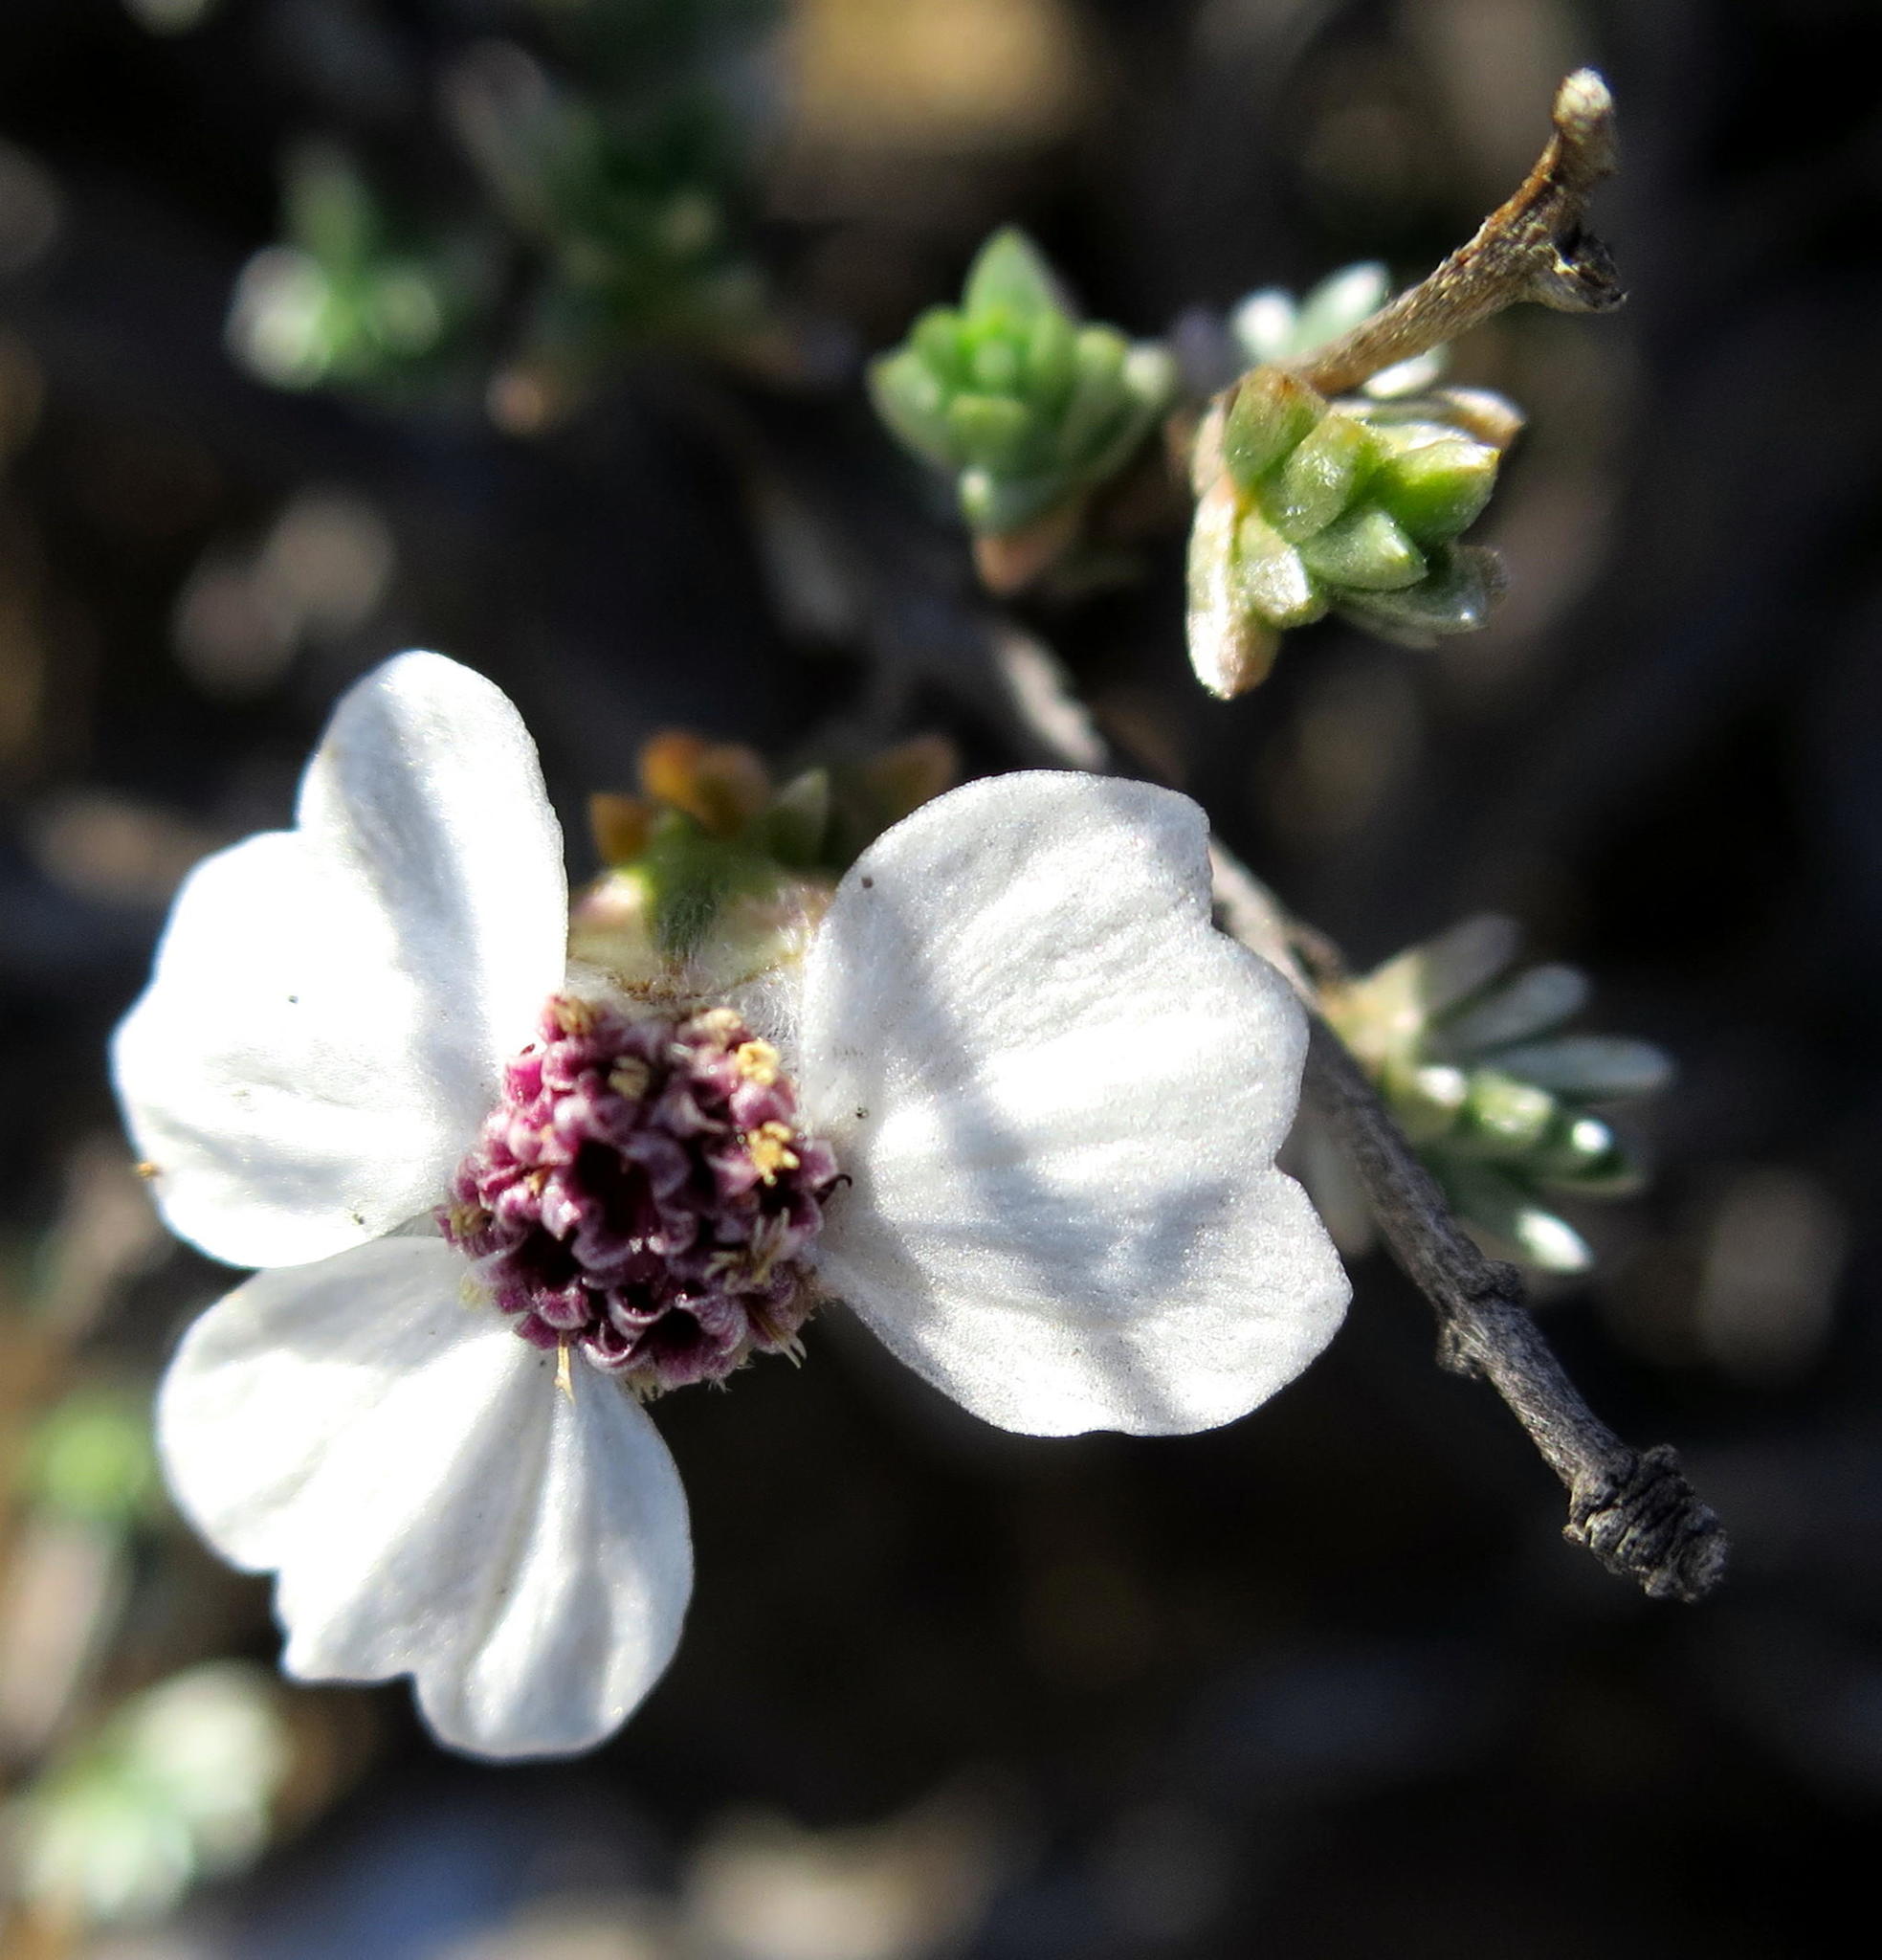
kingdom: Plantae
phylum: Tracheophyta
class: Magnoliopsida
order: Asterales
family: Asteraceae
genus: Eriocephalus
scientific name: Eriocephalus grandiflorus
